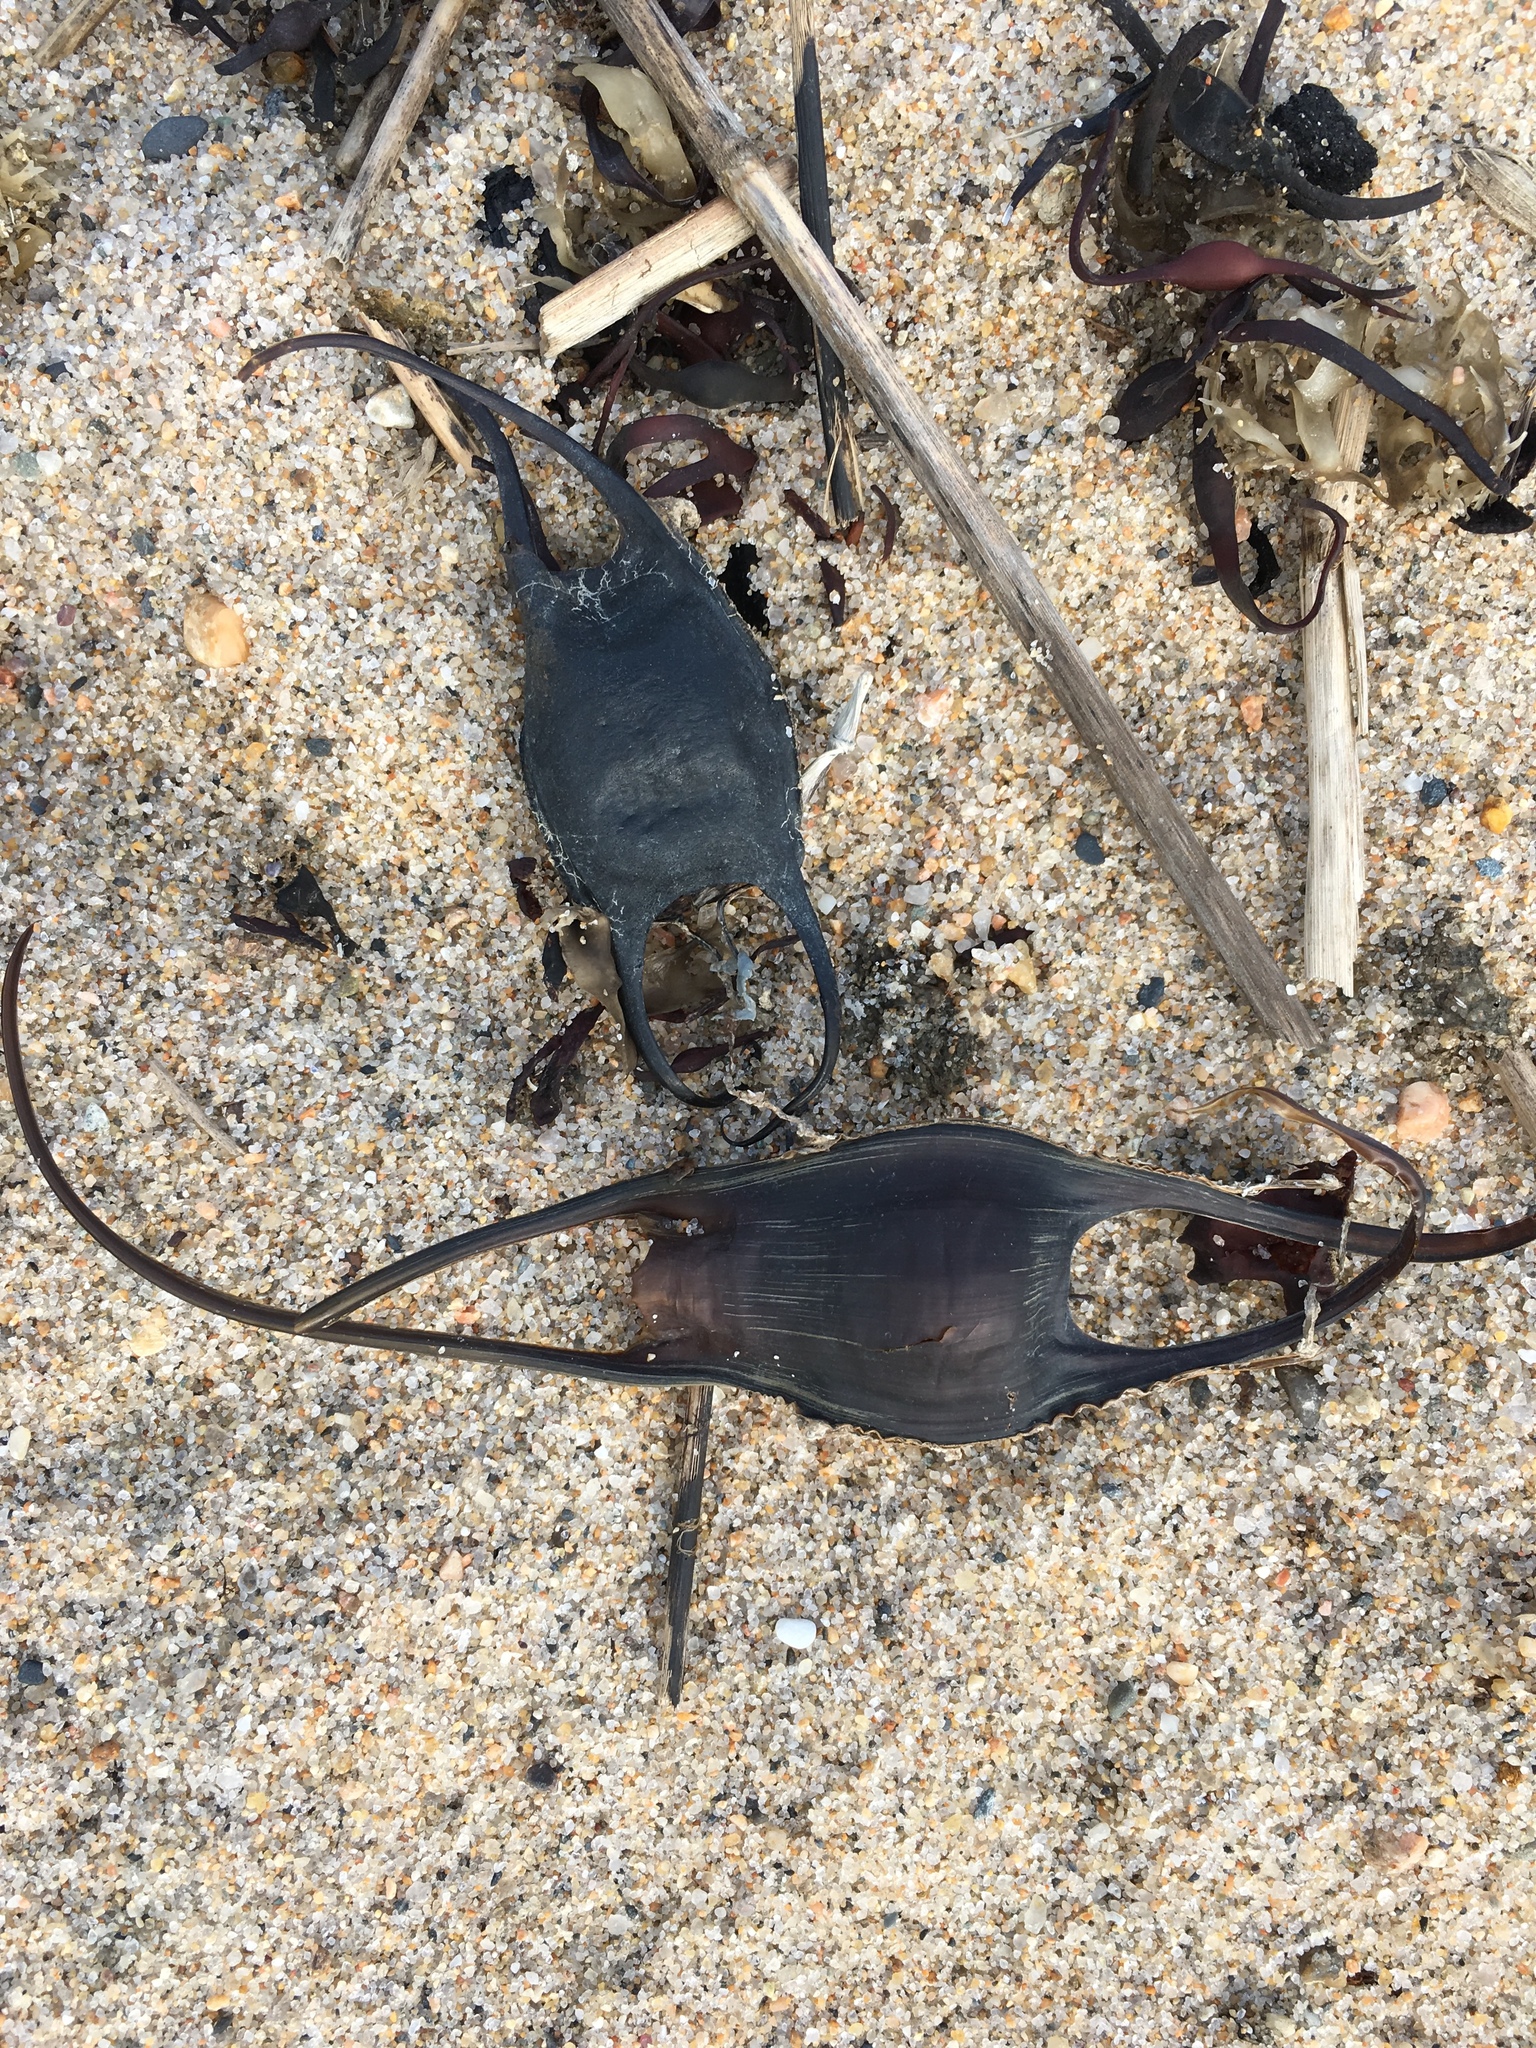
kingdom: Animalia
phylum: Chordata
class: Elasmobranchii
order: Rajiformes
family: Rajidae
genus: Leucoraja
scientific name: Leucoraja erinacea
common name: Little skate
